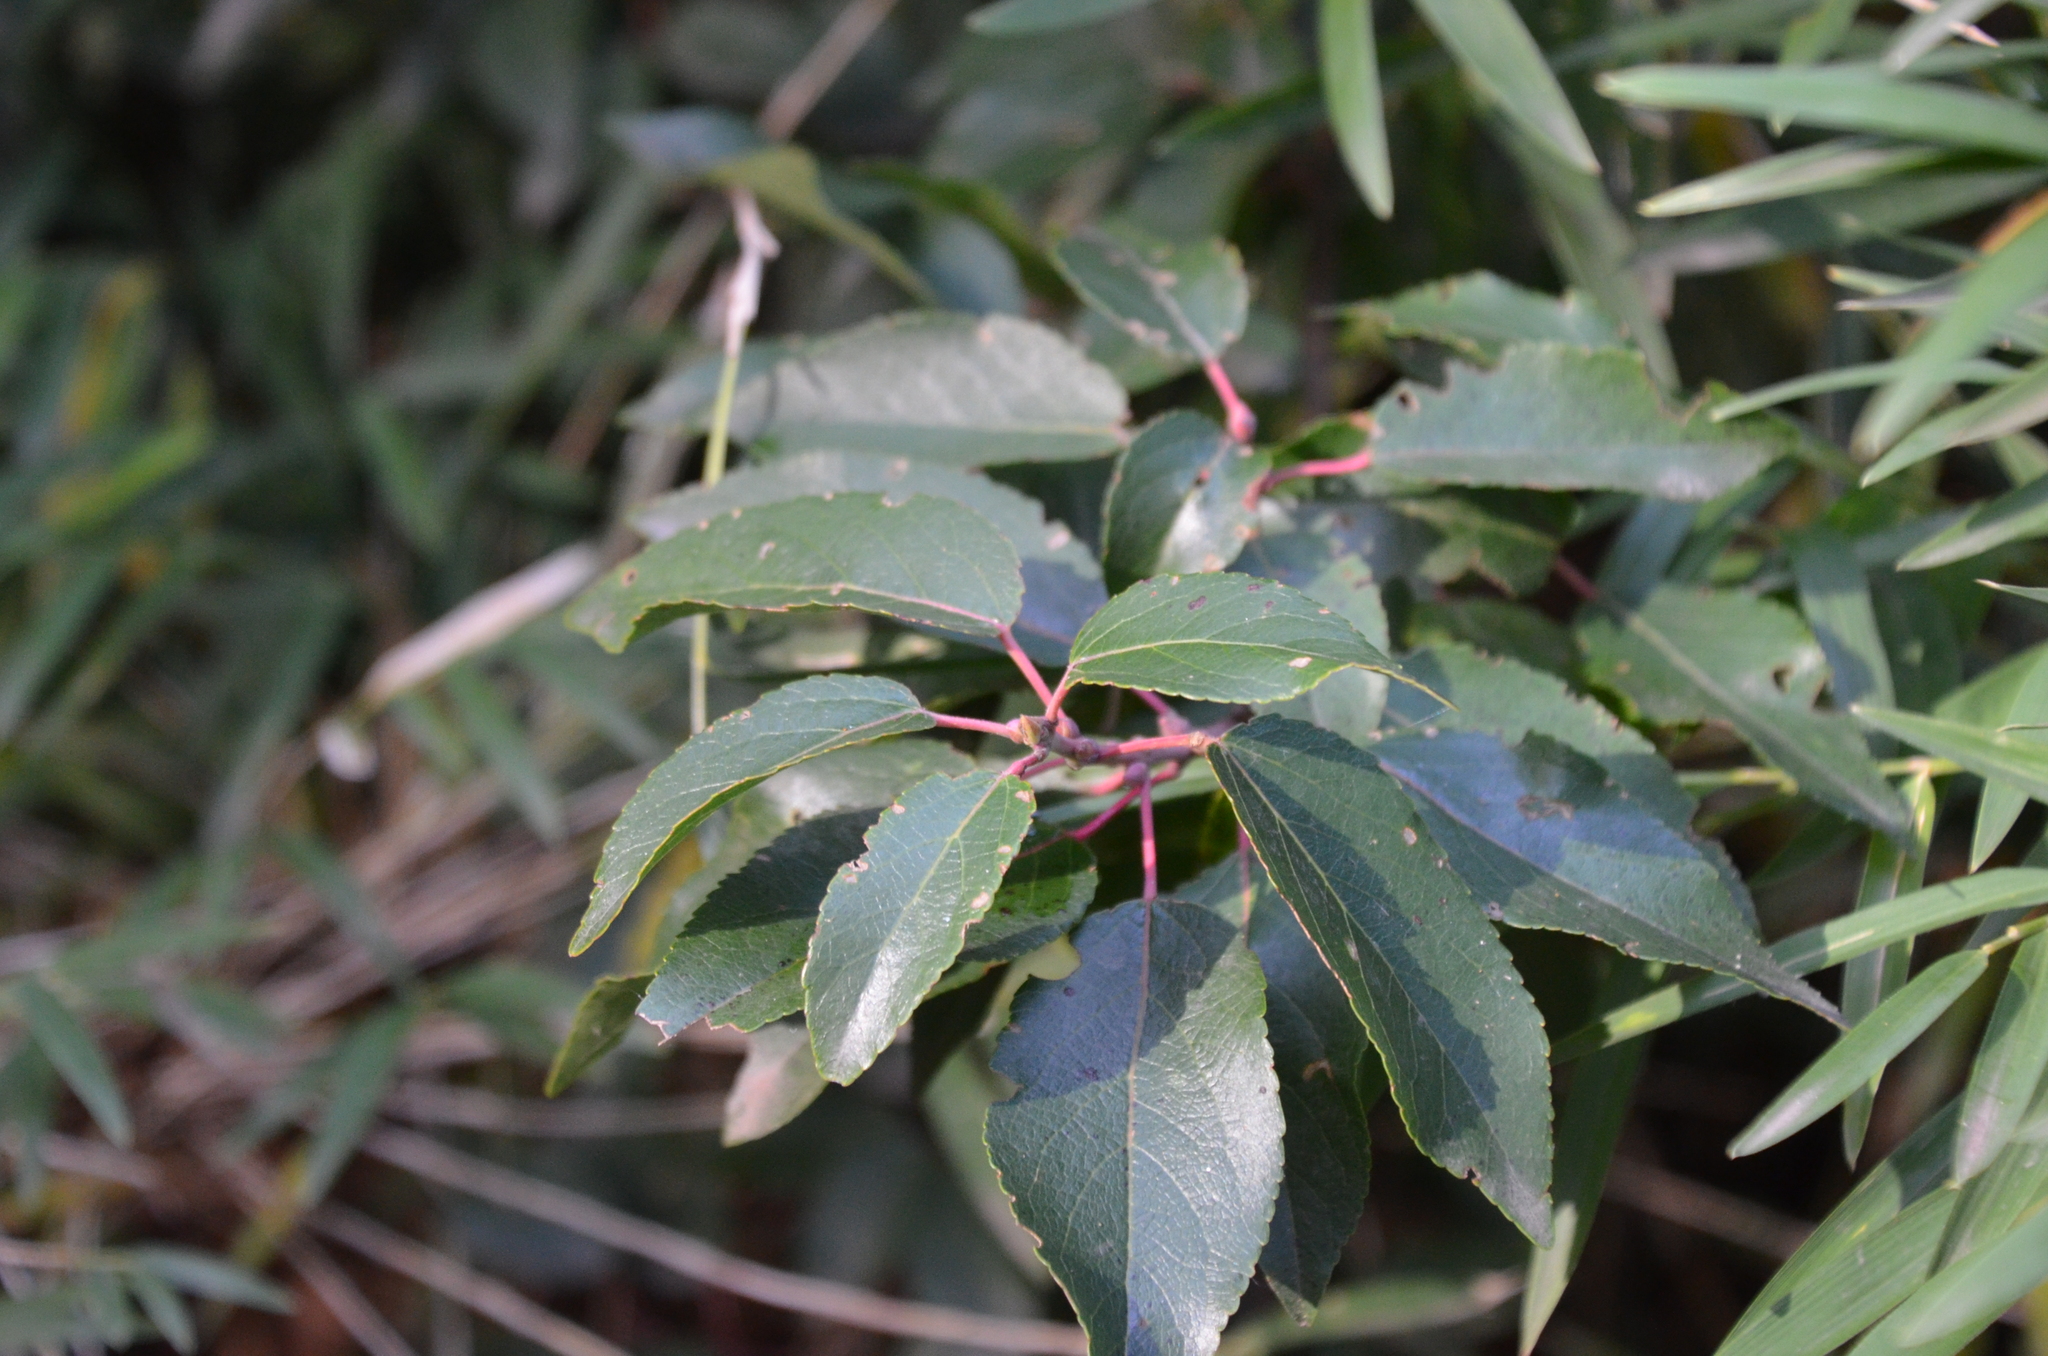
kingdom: Plantae
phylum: Tracheophyta
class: Magnoliopsida
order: Oxalidales
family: Elaeocarpaceae
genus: Aristotelia
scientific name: Aristotelia chilensis
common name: Maquei
